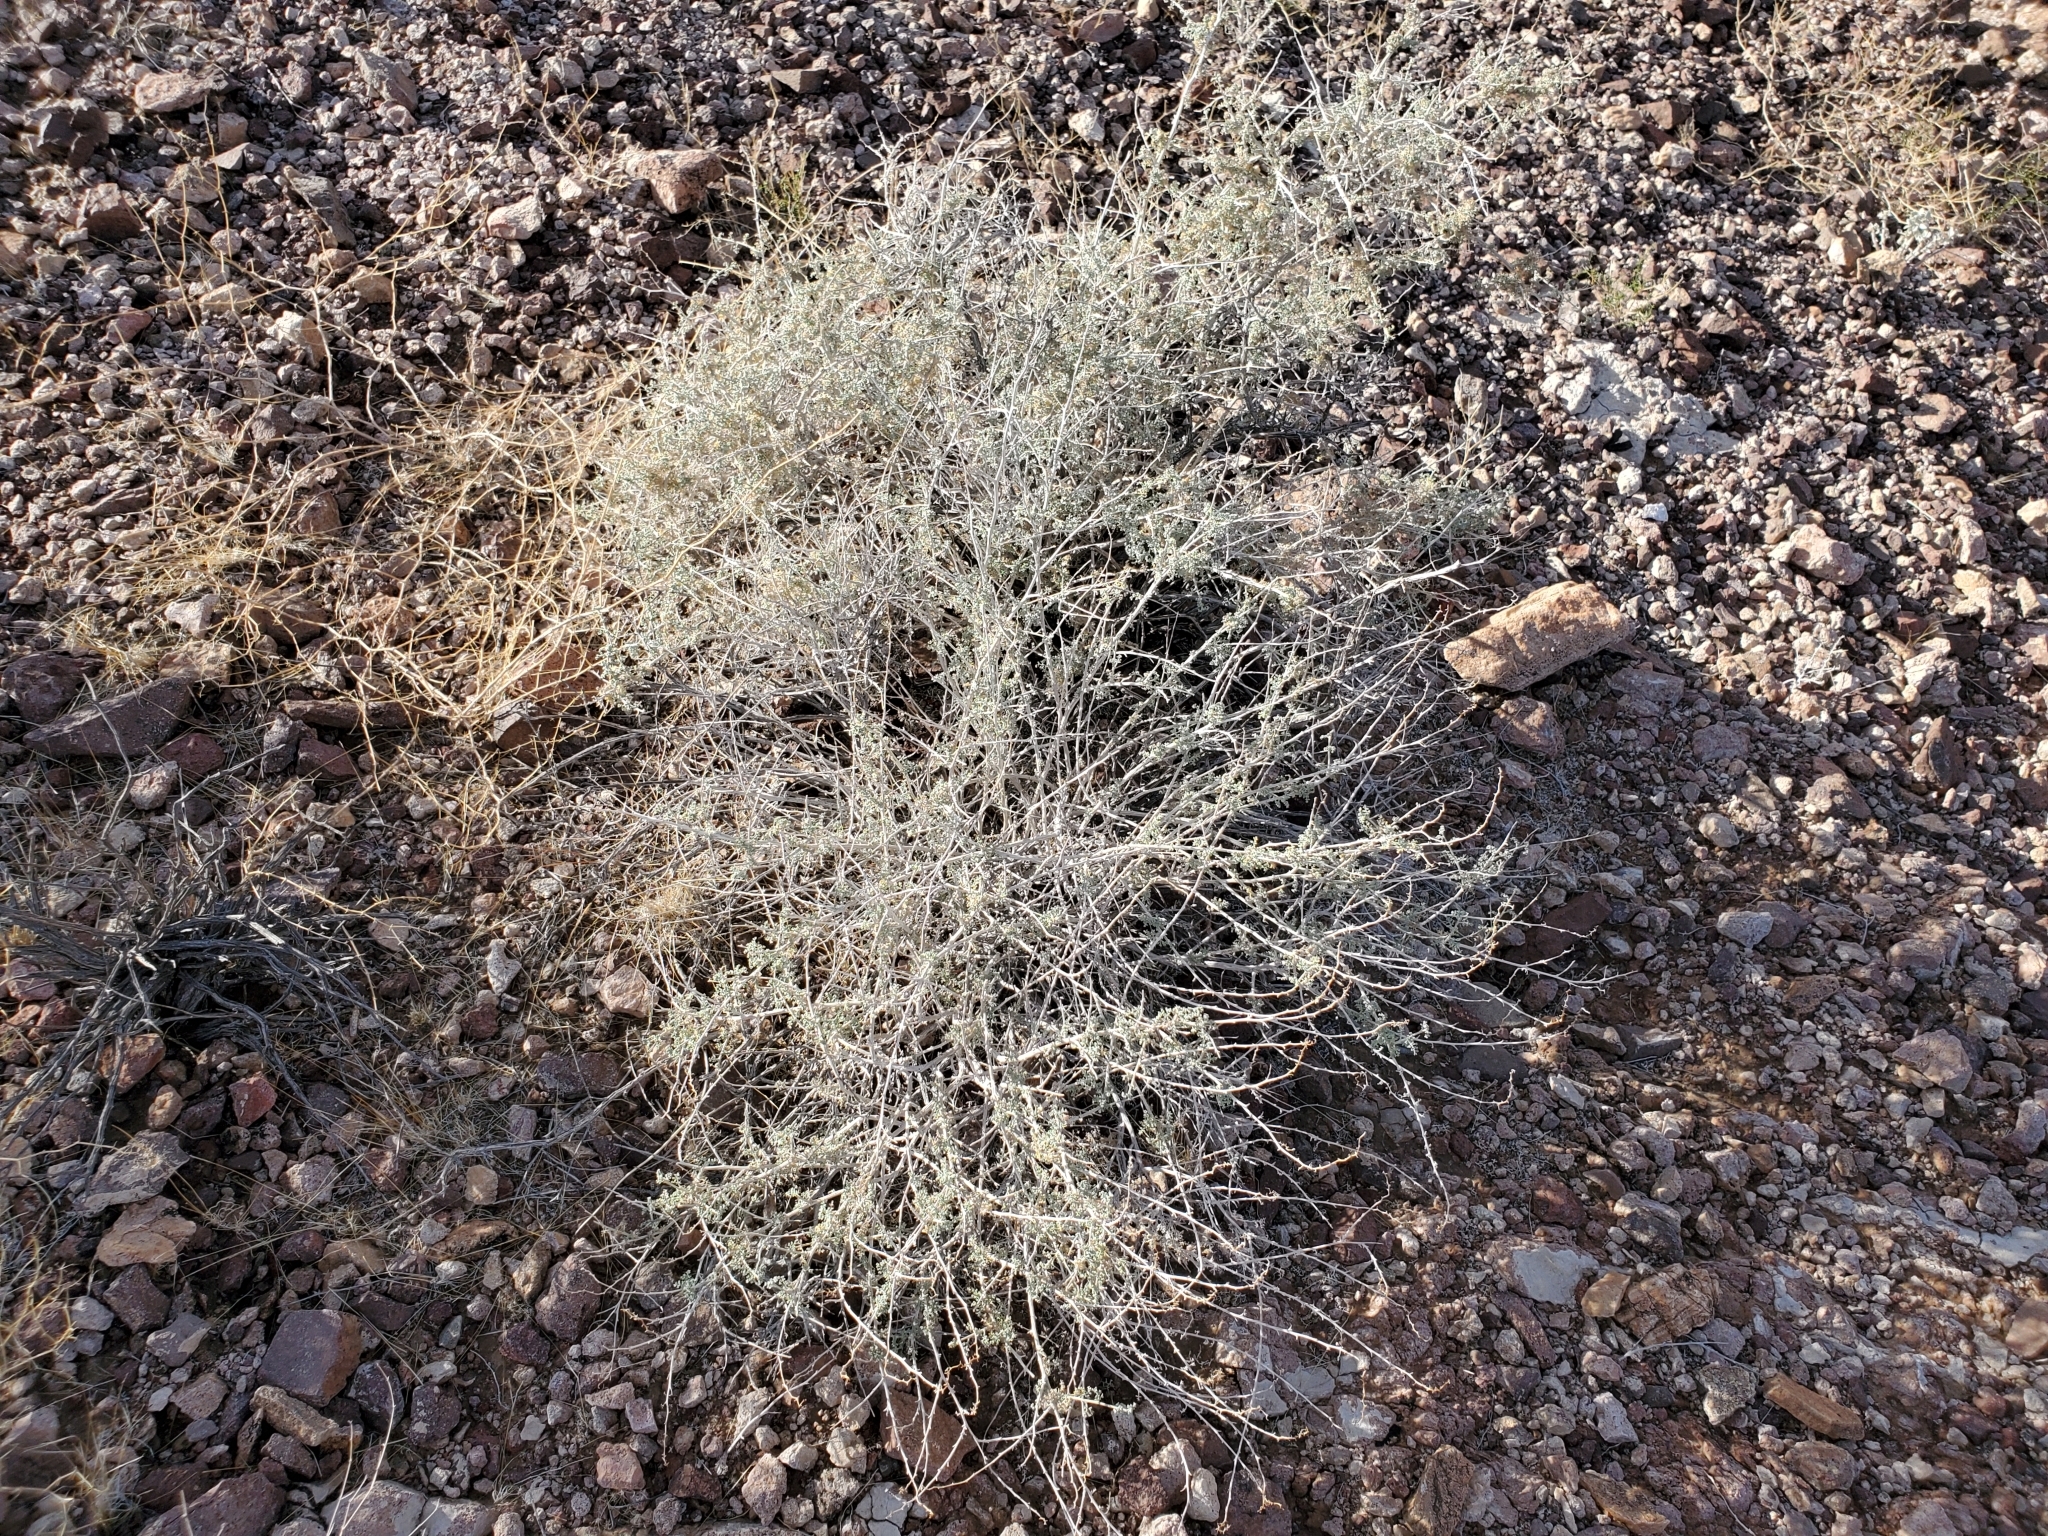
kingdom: Plantae
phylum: Tracheophyta
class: Magnoliopsida
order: Asterales
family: Asteraceae
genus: Ambrosia
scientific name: Ambrosia dumosa
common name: Bur-sage
